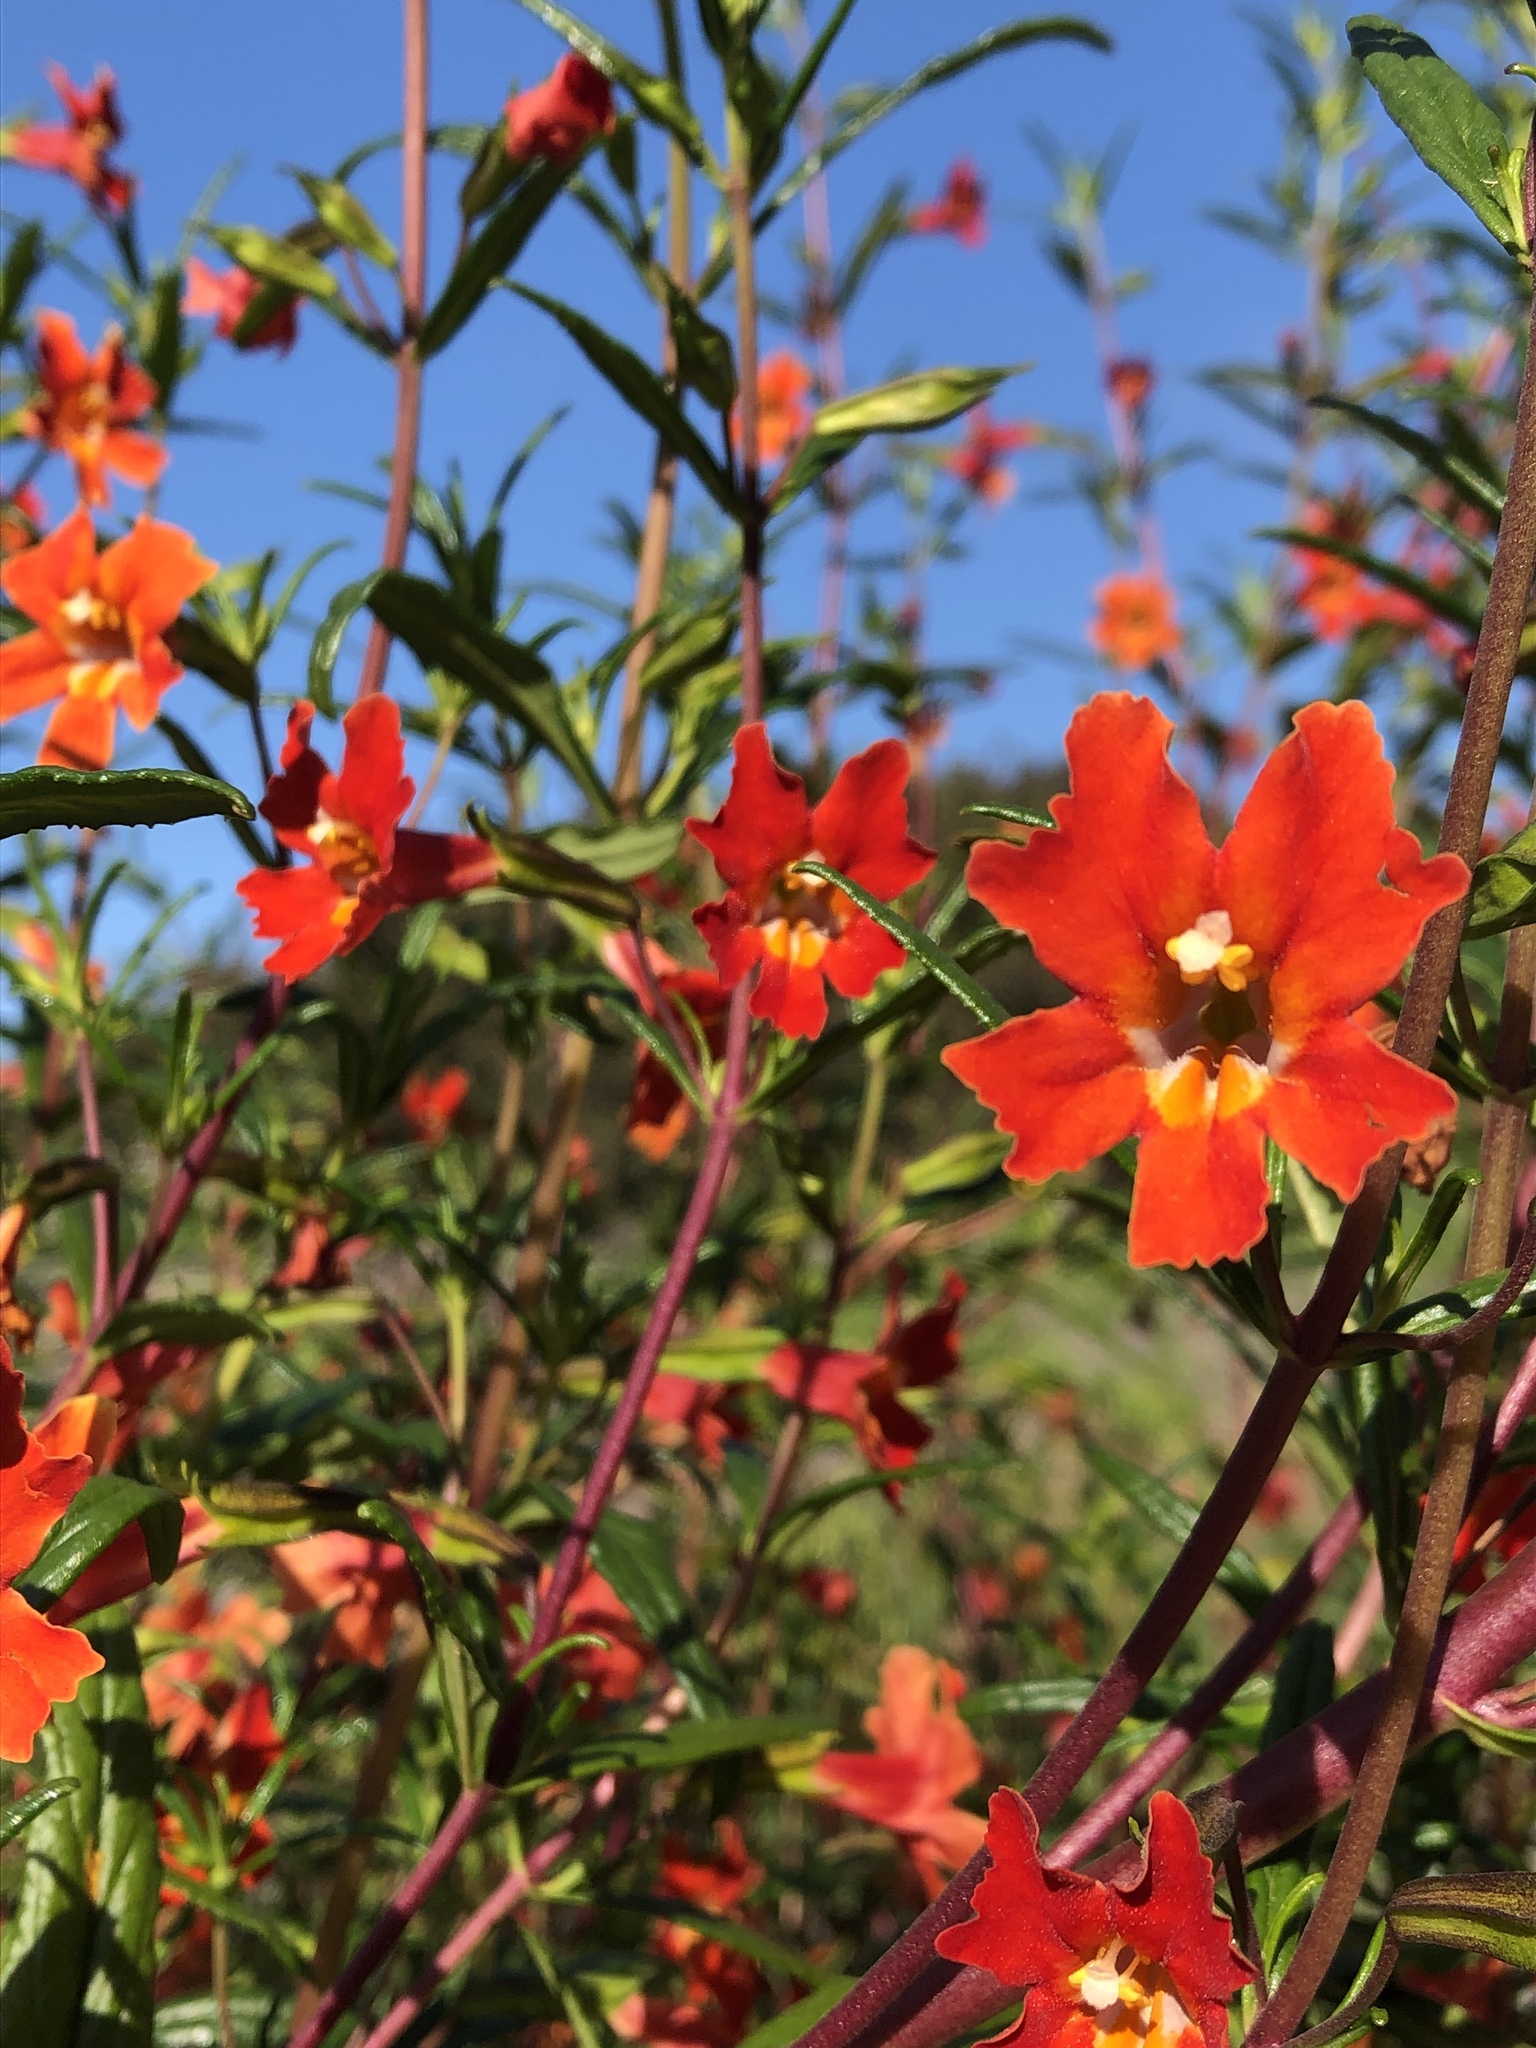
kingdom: Plantae
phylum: Tracheophyta
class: Magnoliopsida
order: Lamiales
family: Phrymaceae
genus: Diplacus
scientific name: Diplacus puniceus
